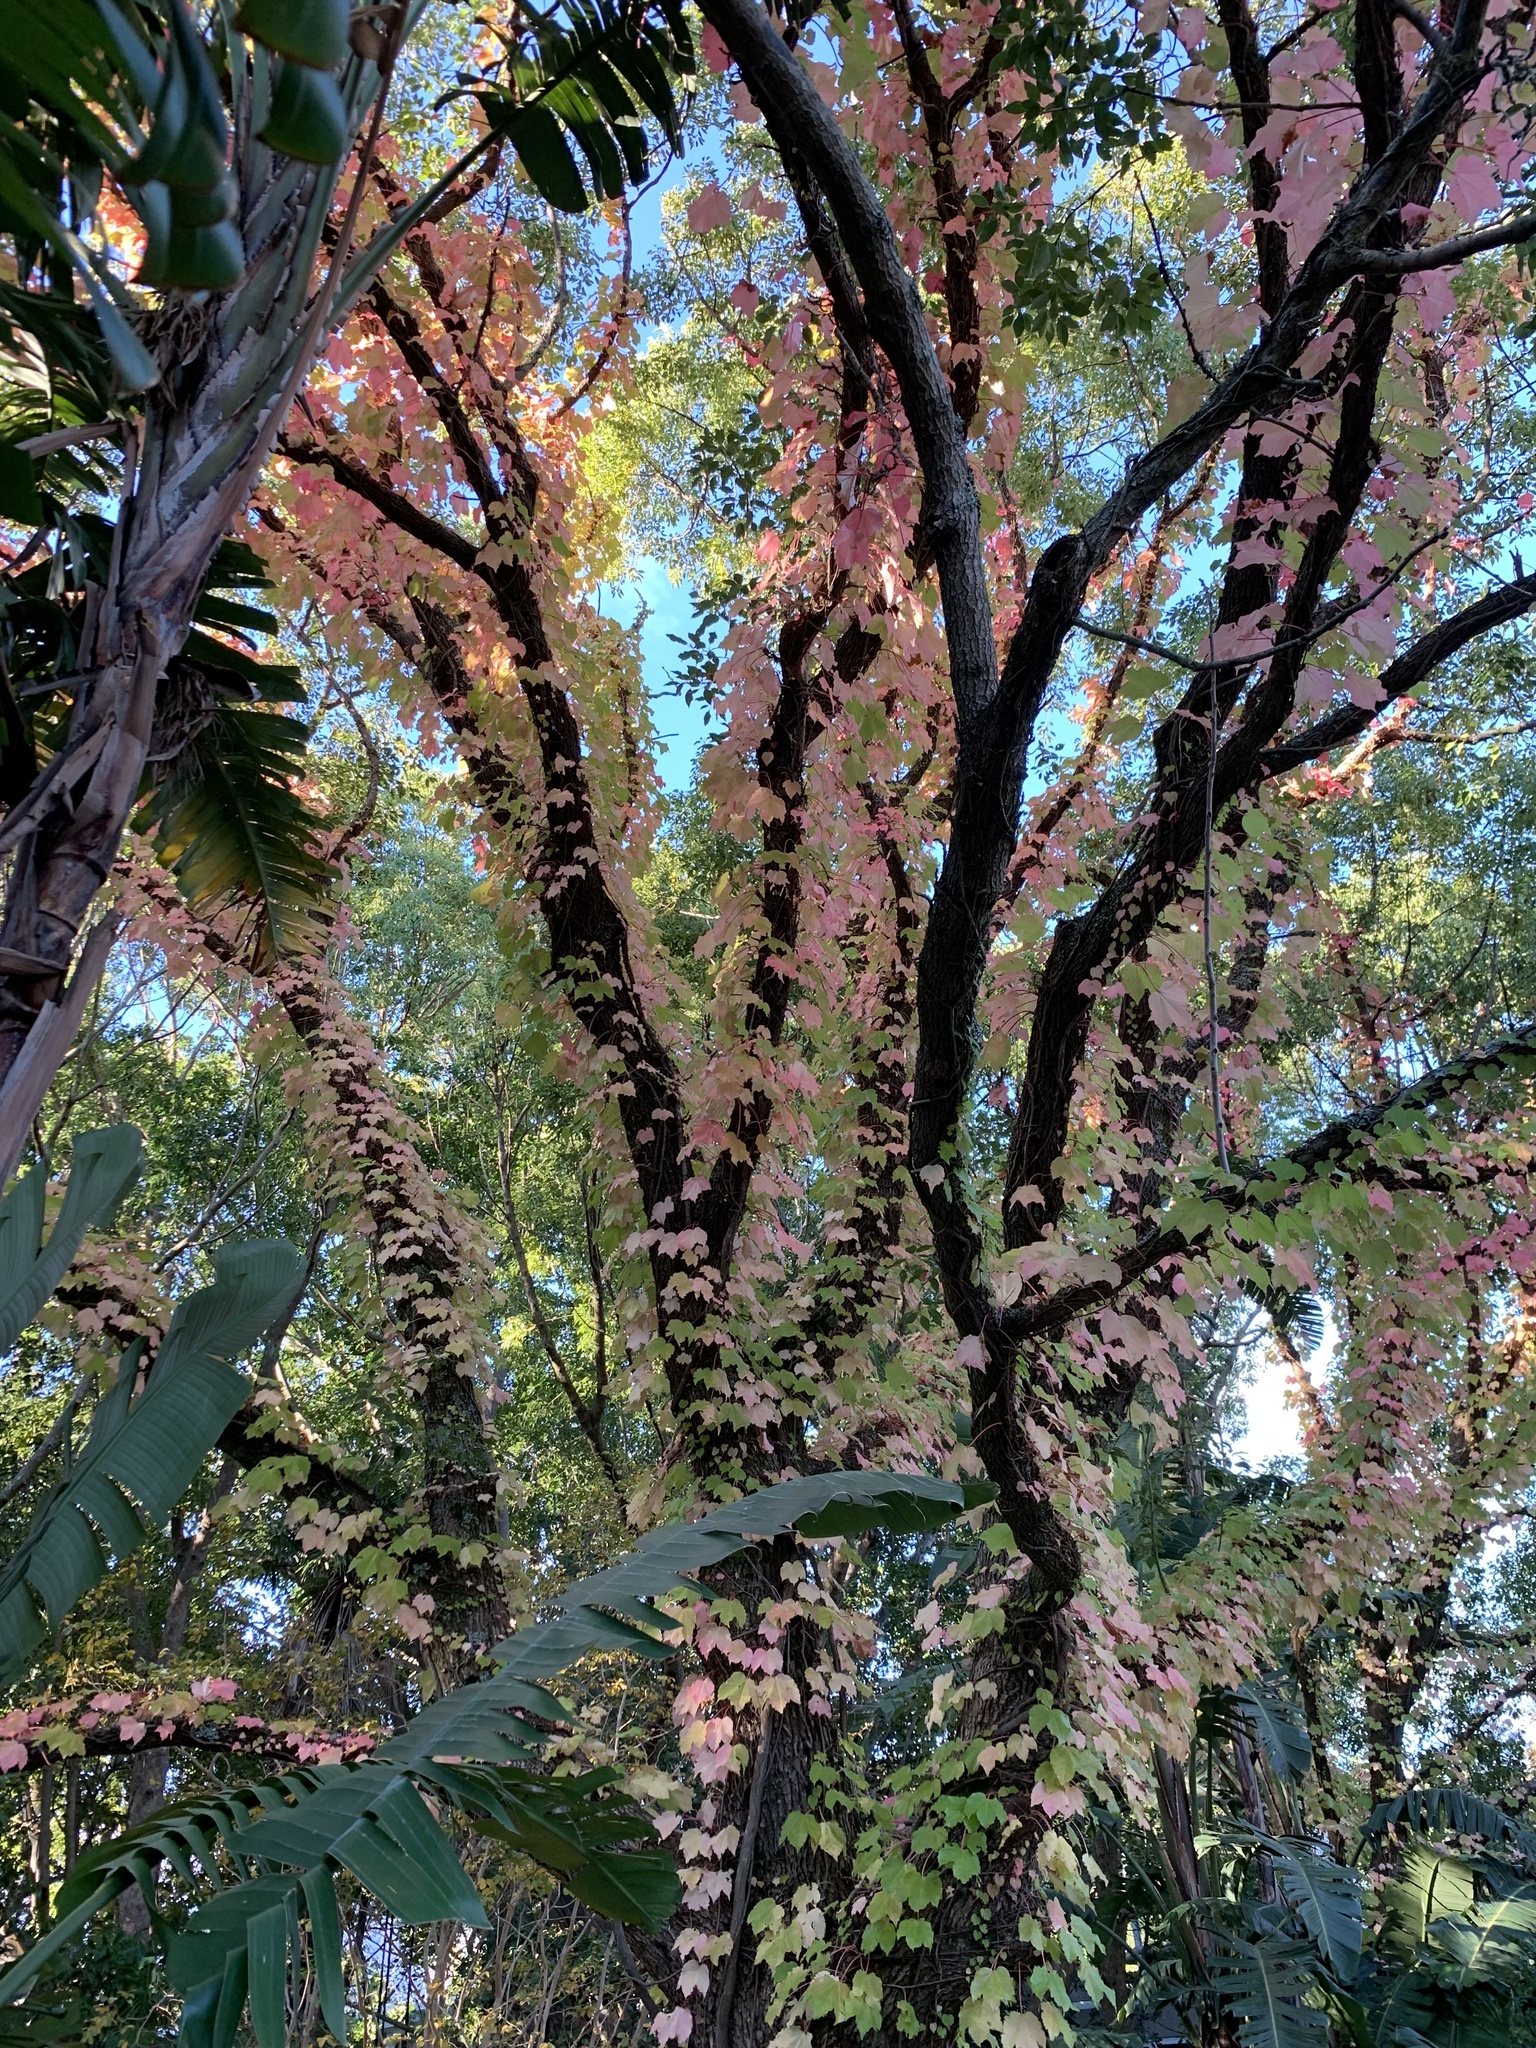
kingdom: Plantae
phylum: Tracheophyta
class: Magnoliopsida
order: Vitales
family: Vitaceae
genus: Parthenocissus
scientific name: Parthenocissus tricuspidata
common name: Boston ivy
